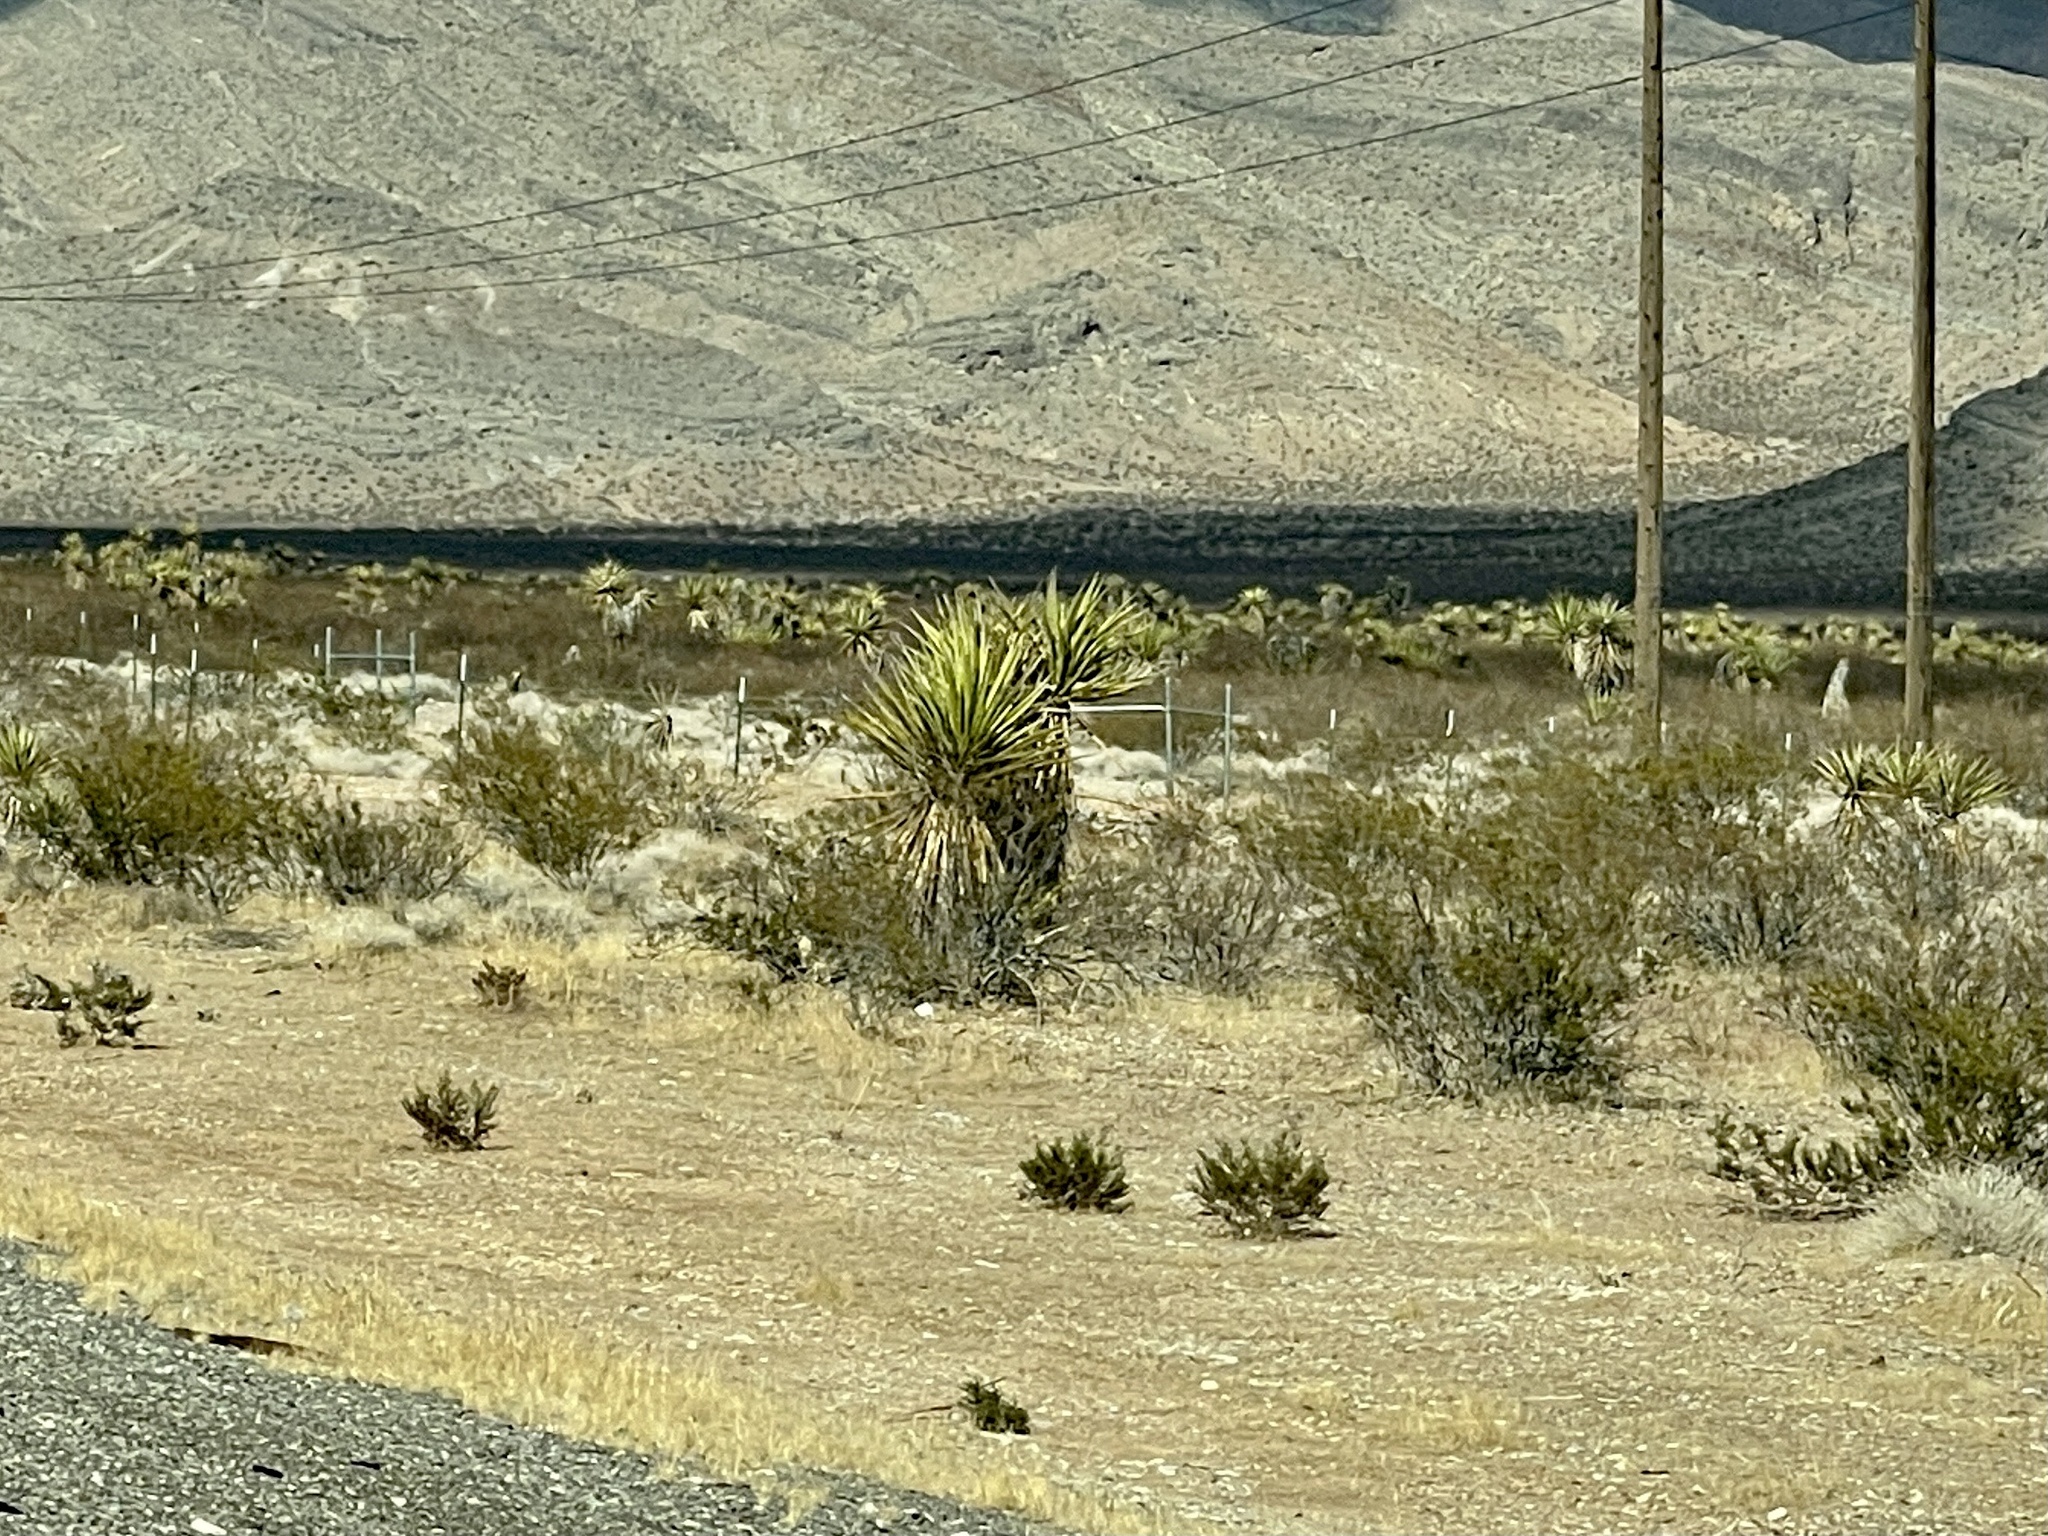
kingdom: Plantae
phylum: Tracheophyta
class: Liliopsida
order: Asparagales
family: Asparagaceae
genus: Yucca
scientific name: Yucca schidigera
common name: Mojave yucca
